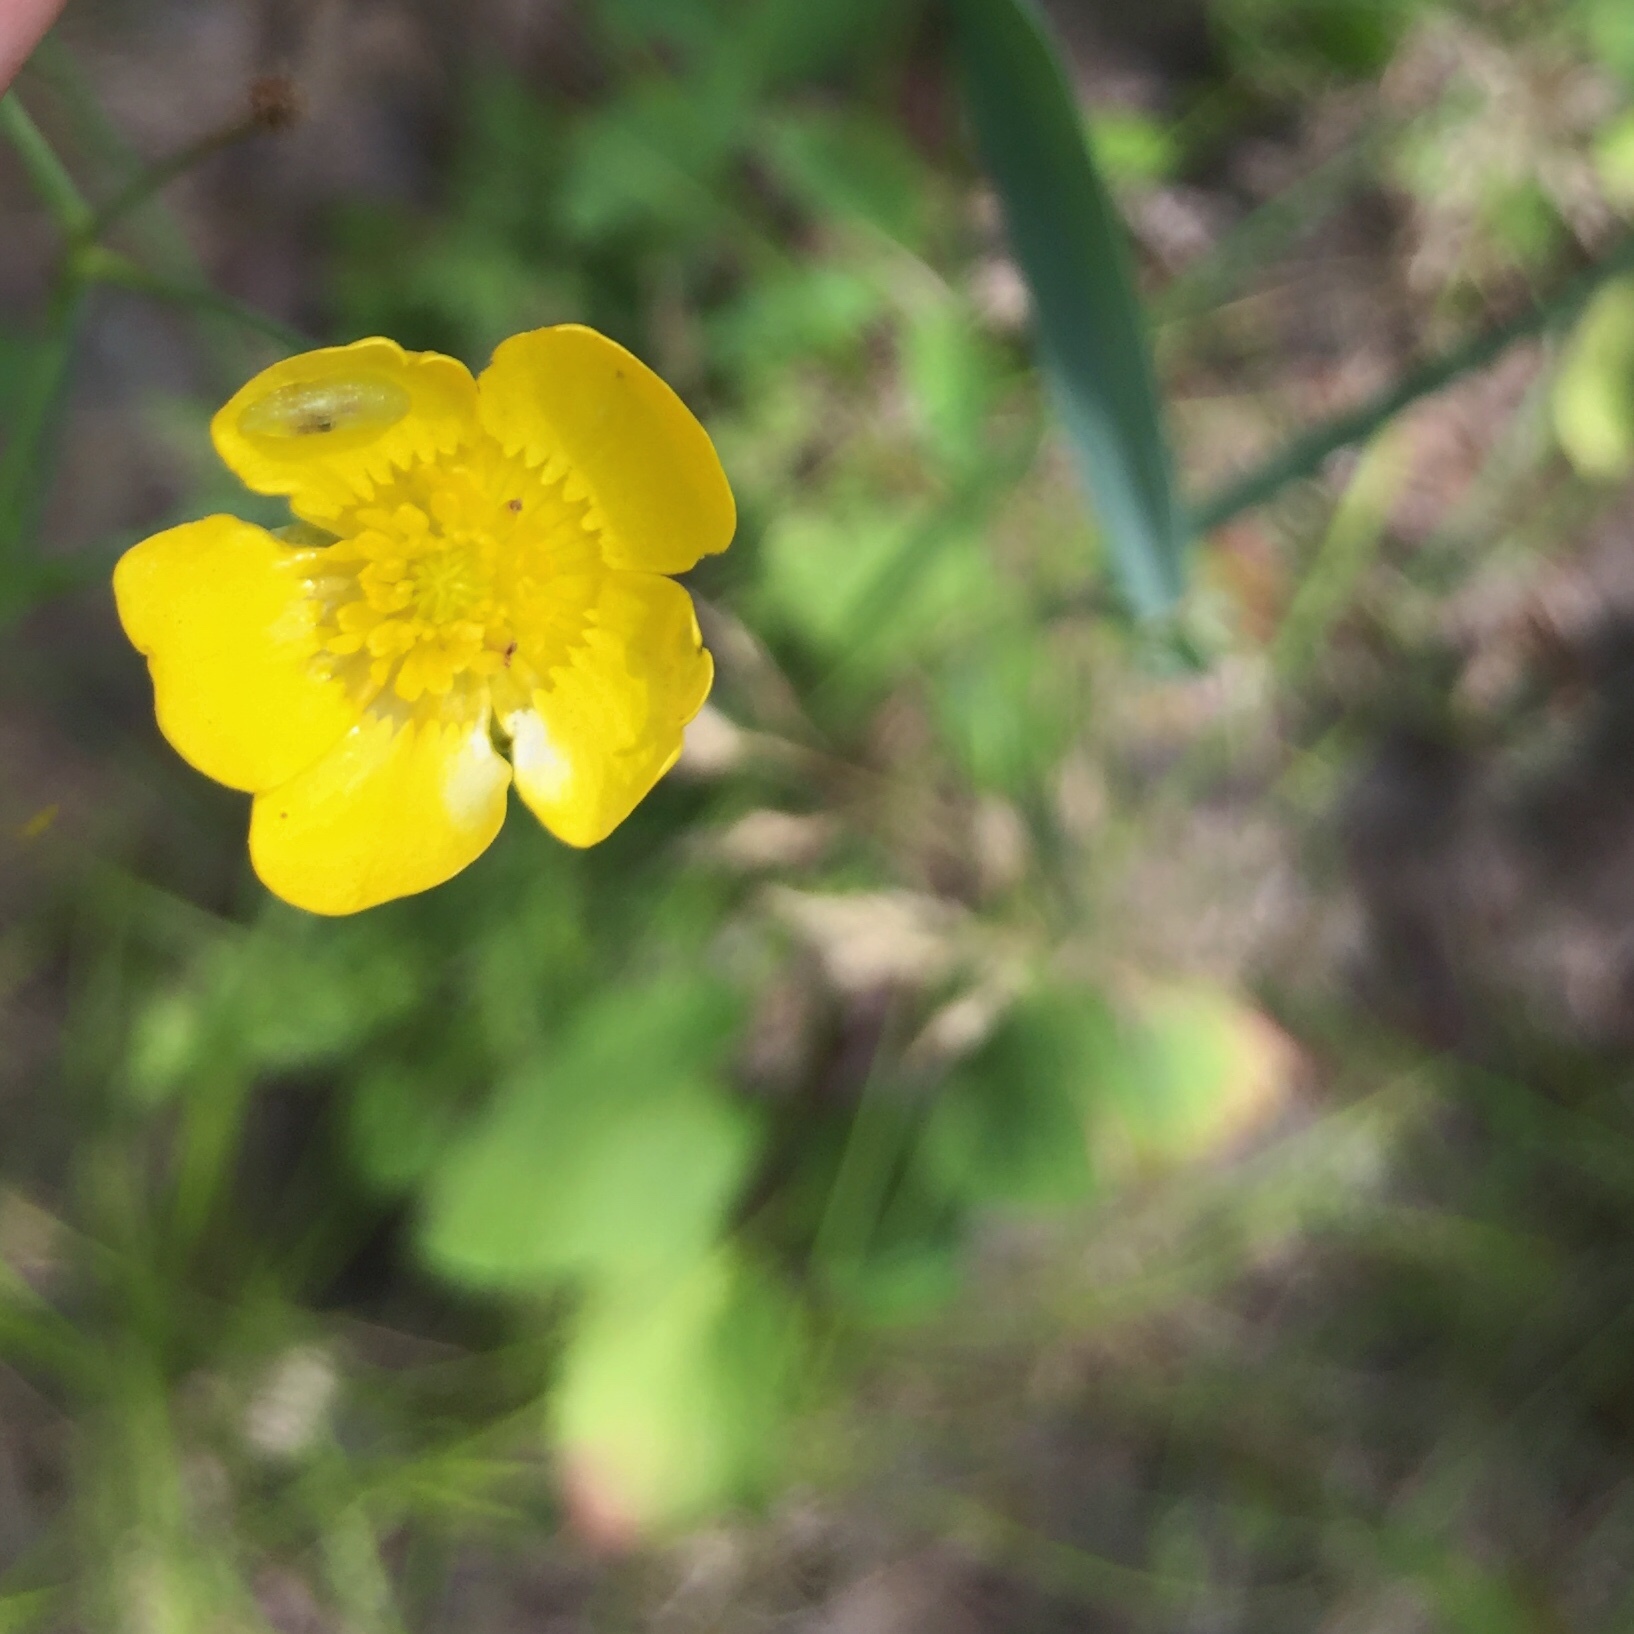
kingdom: Plantae
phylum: Tracheophyta
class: Magnoliopsida
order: Ranunculales
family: Ranunculaceae
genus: Ranunculus
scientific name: Ranunculus acris
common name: Meadow buttercup
